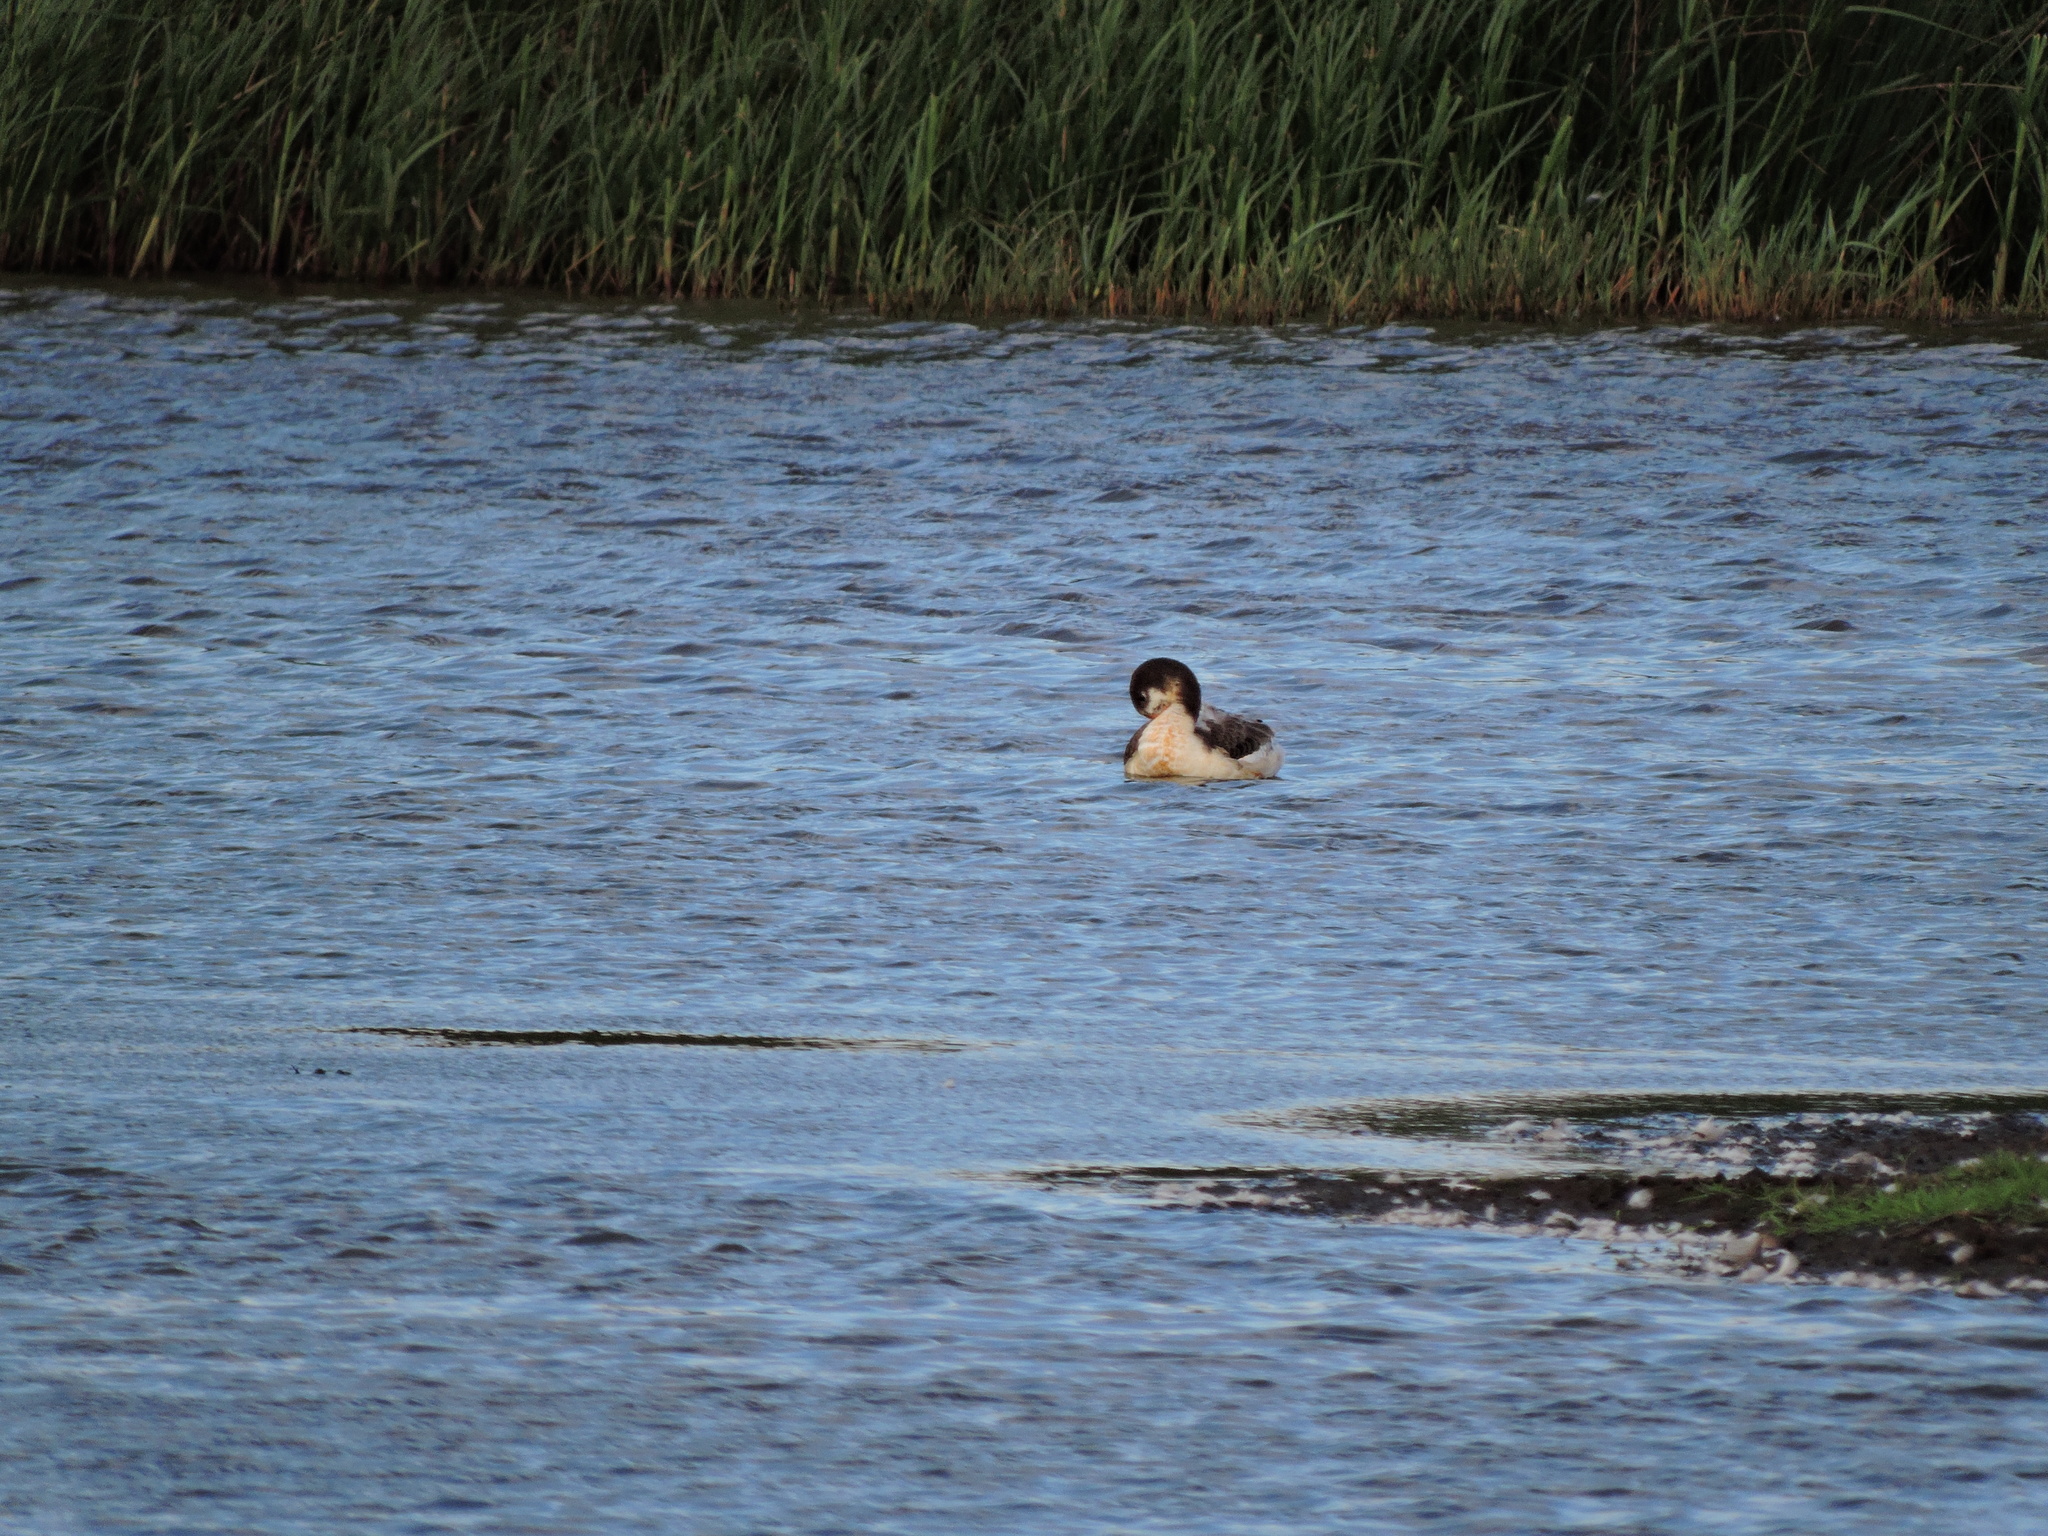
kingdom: Animalia
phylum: Chordata
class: Aves
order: Anseriformes
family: Anatidae
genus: Tadorna
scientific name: Tadorna tadorna
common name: Common shelduck
